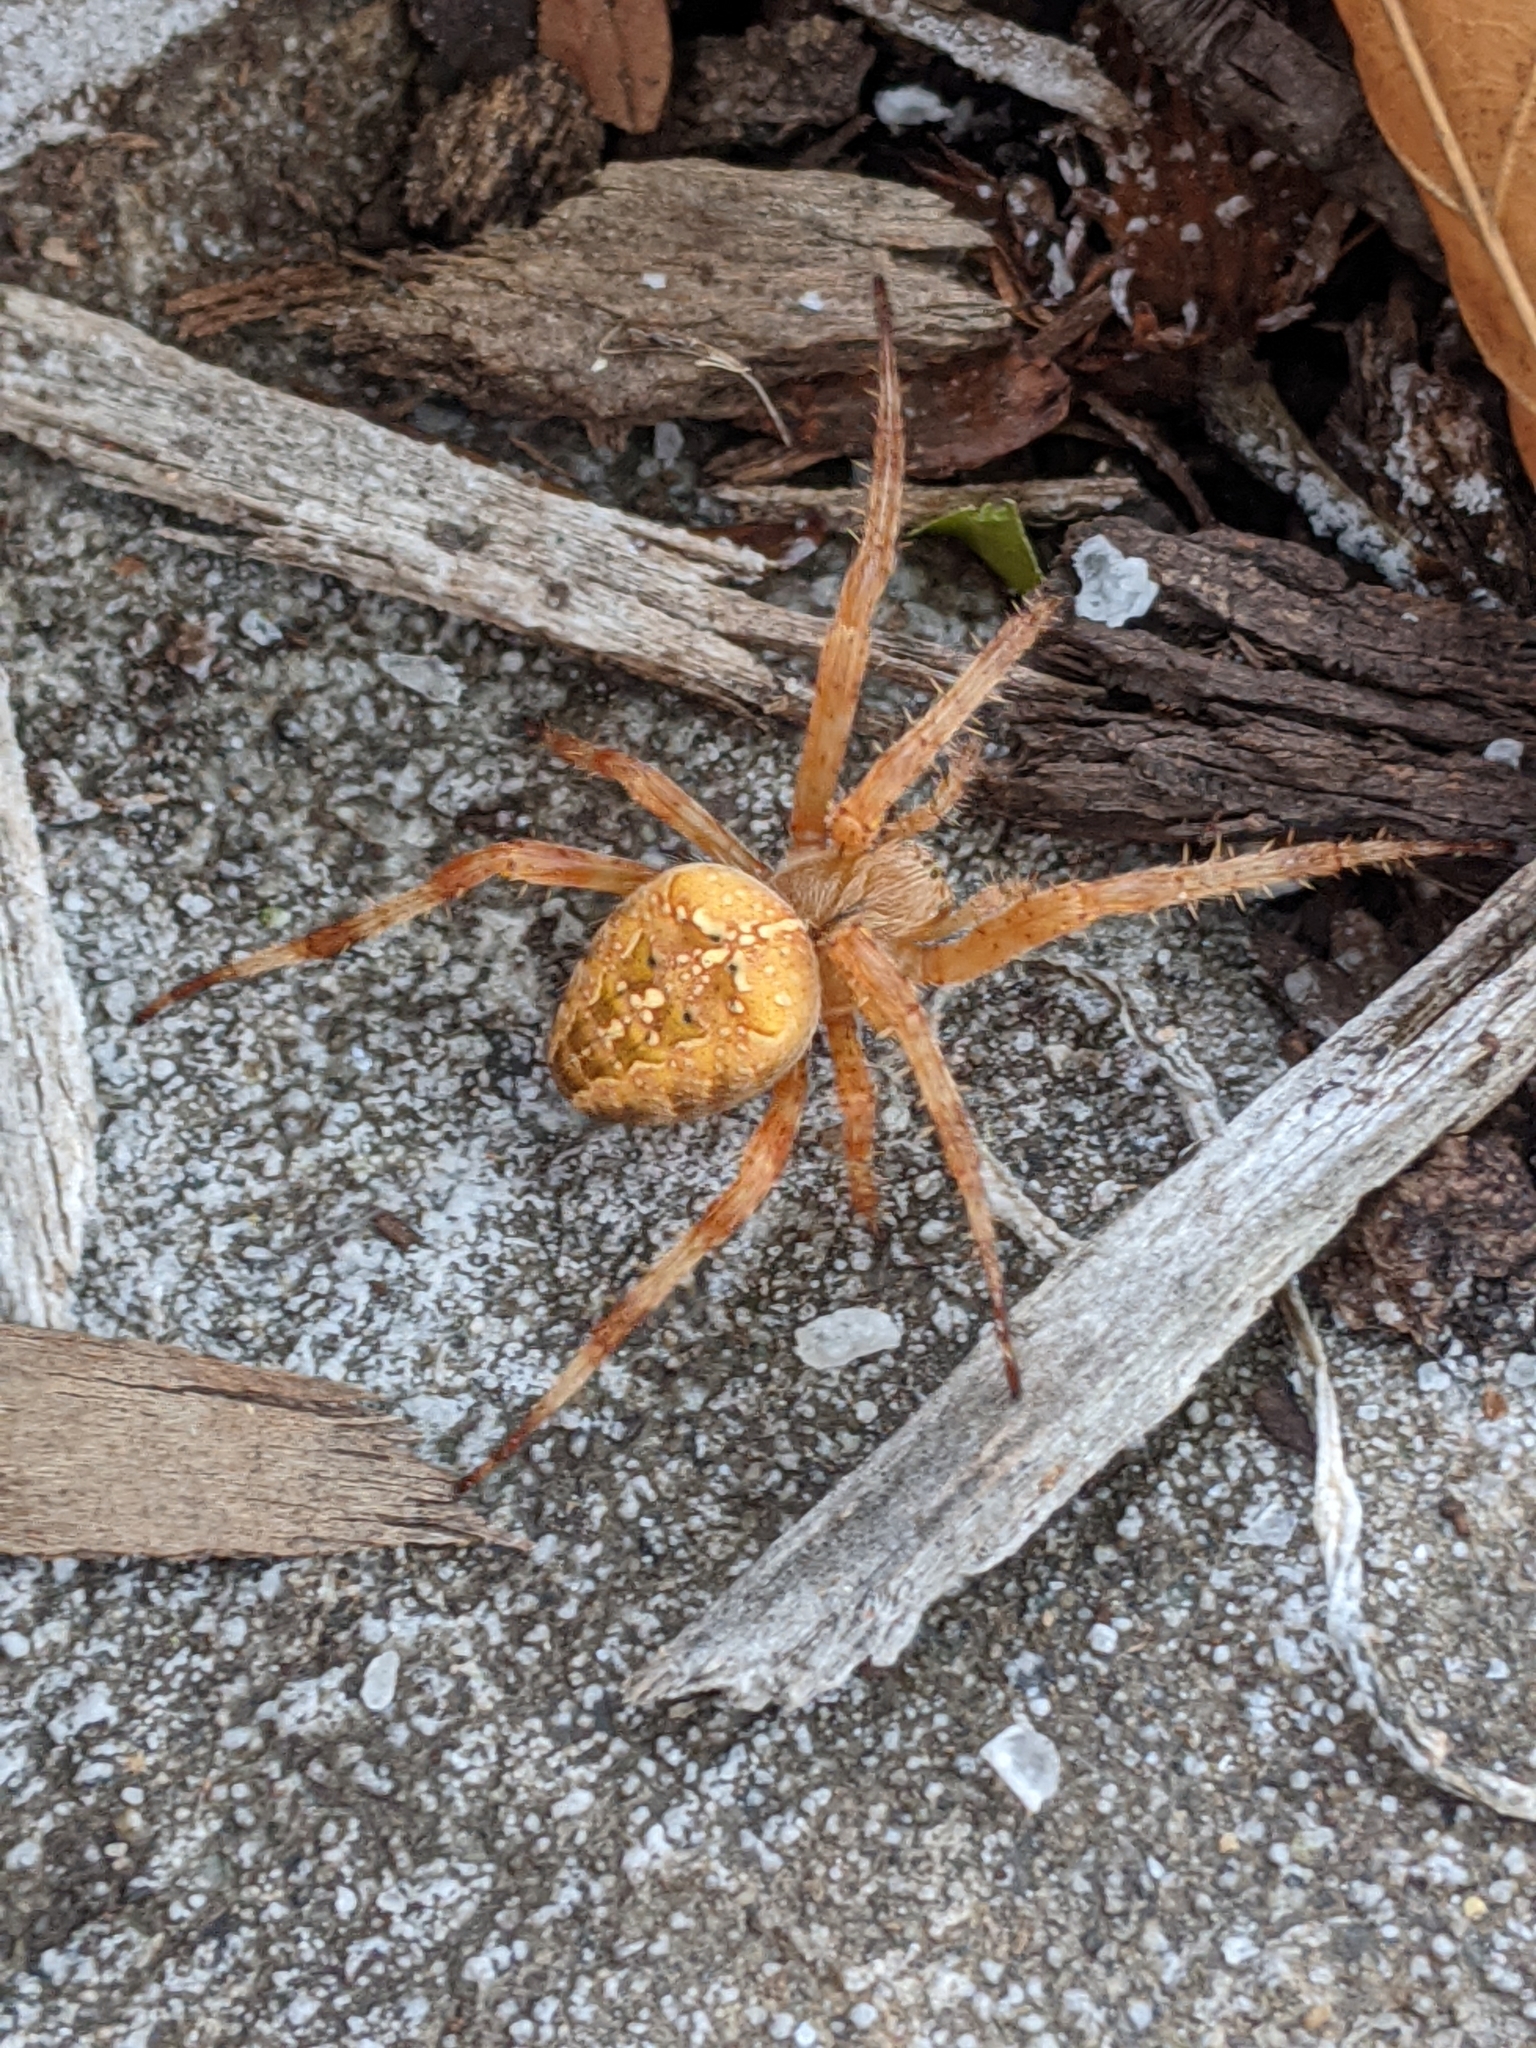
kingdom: Animalia
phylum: Arthropoda
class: Arachnida
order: Araneae
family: Araneidae
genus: Araneus
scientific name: Araneus diadematus
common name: Cross orbweaver
